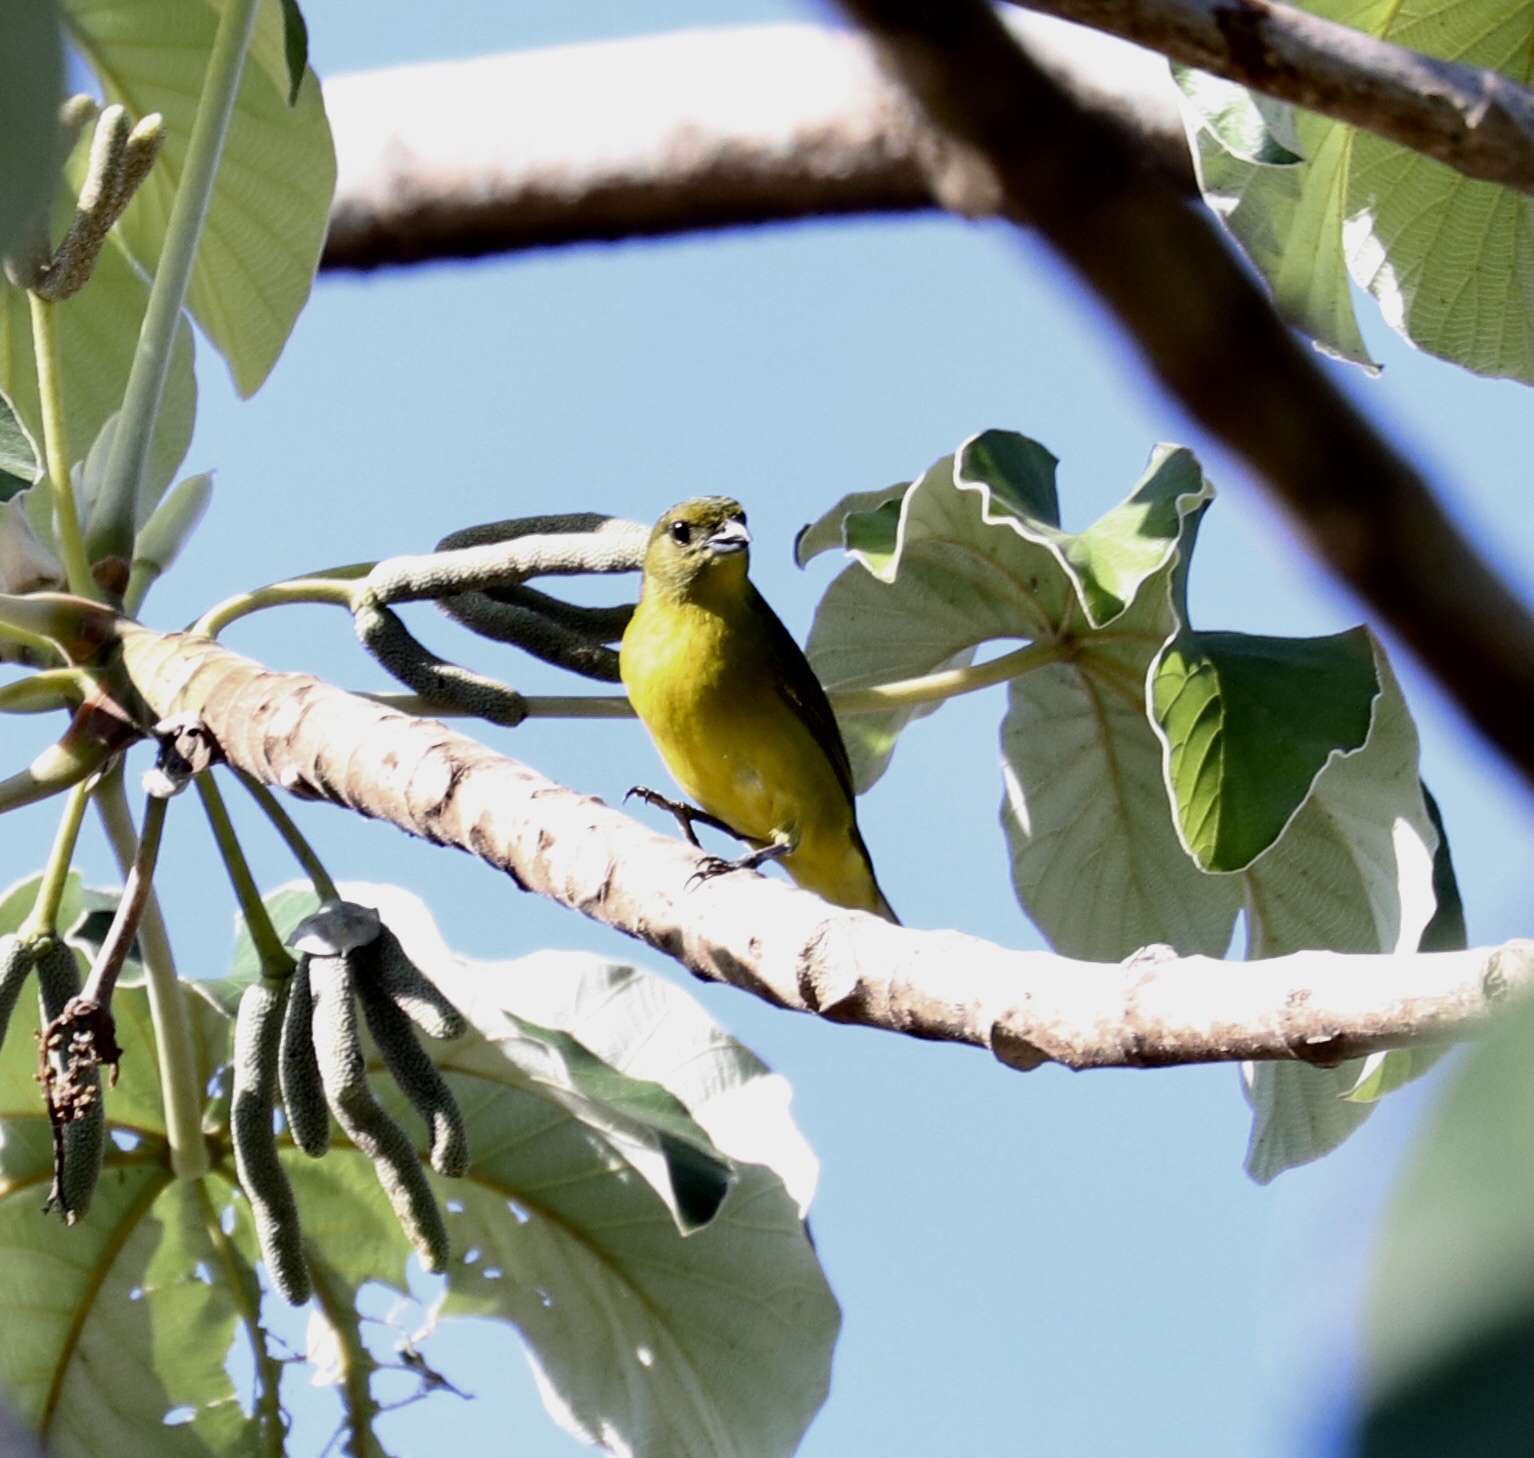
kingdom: Animalia
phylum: Chordata
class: Aves
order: Passeriformes
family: Fringillidae
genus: Euphonia
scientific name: Euphonia laniirostris
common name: Thick-billed euphonia
